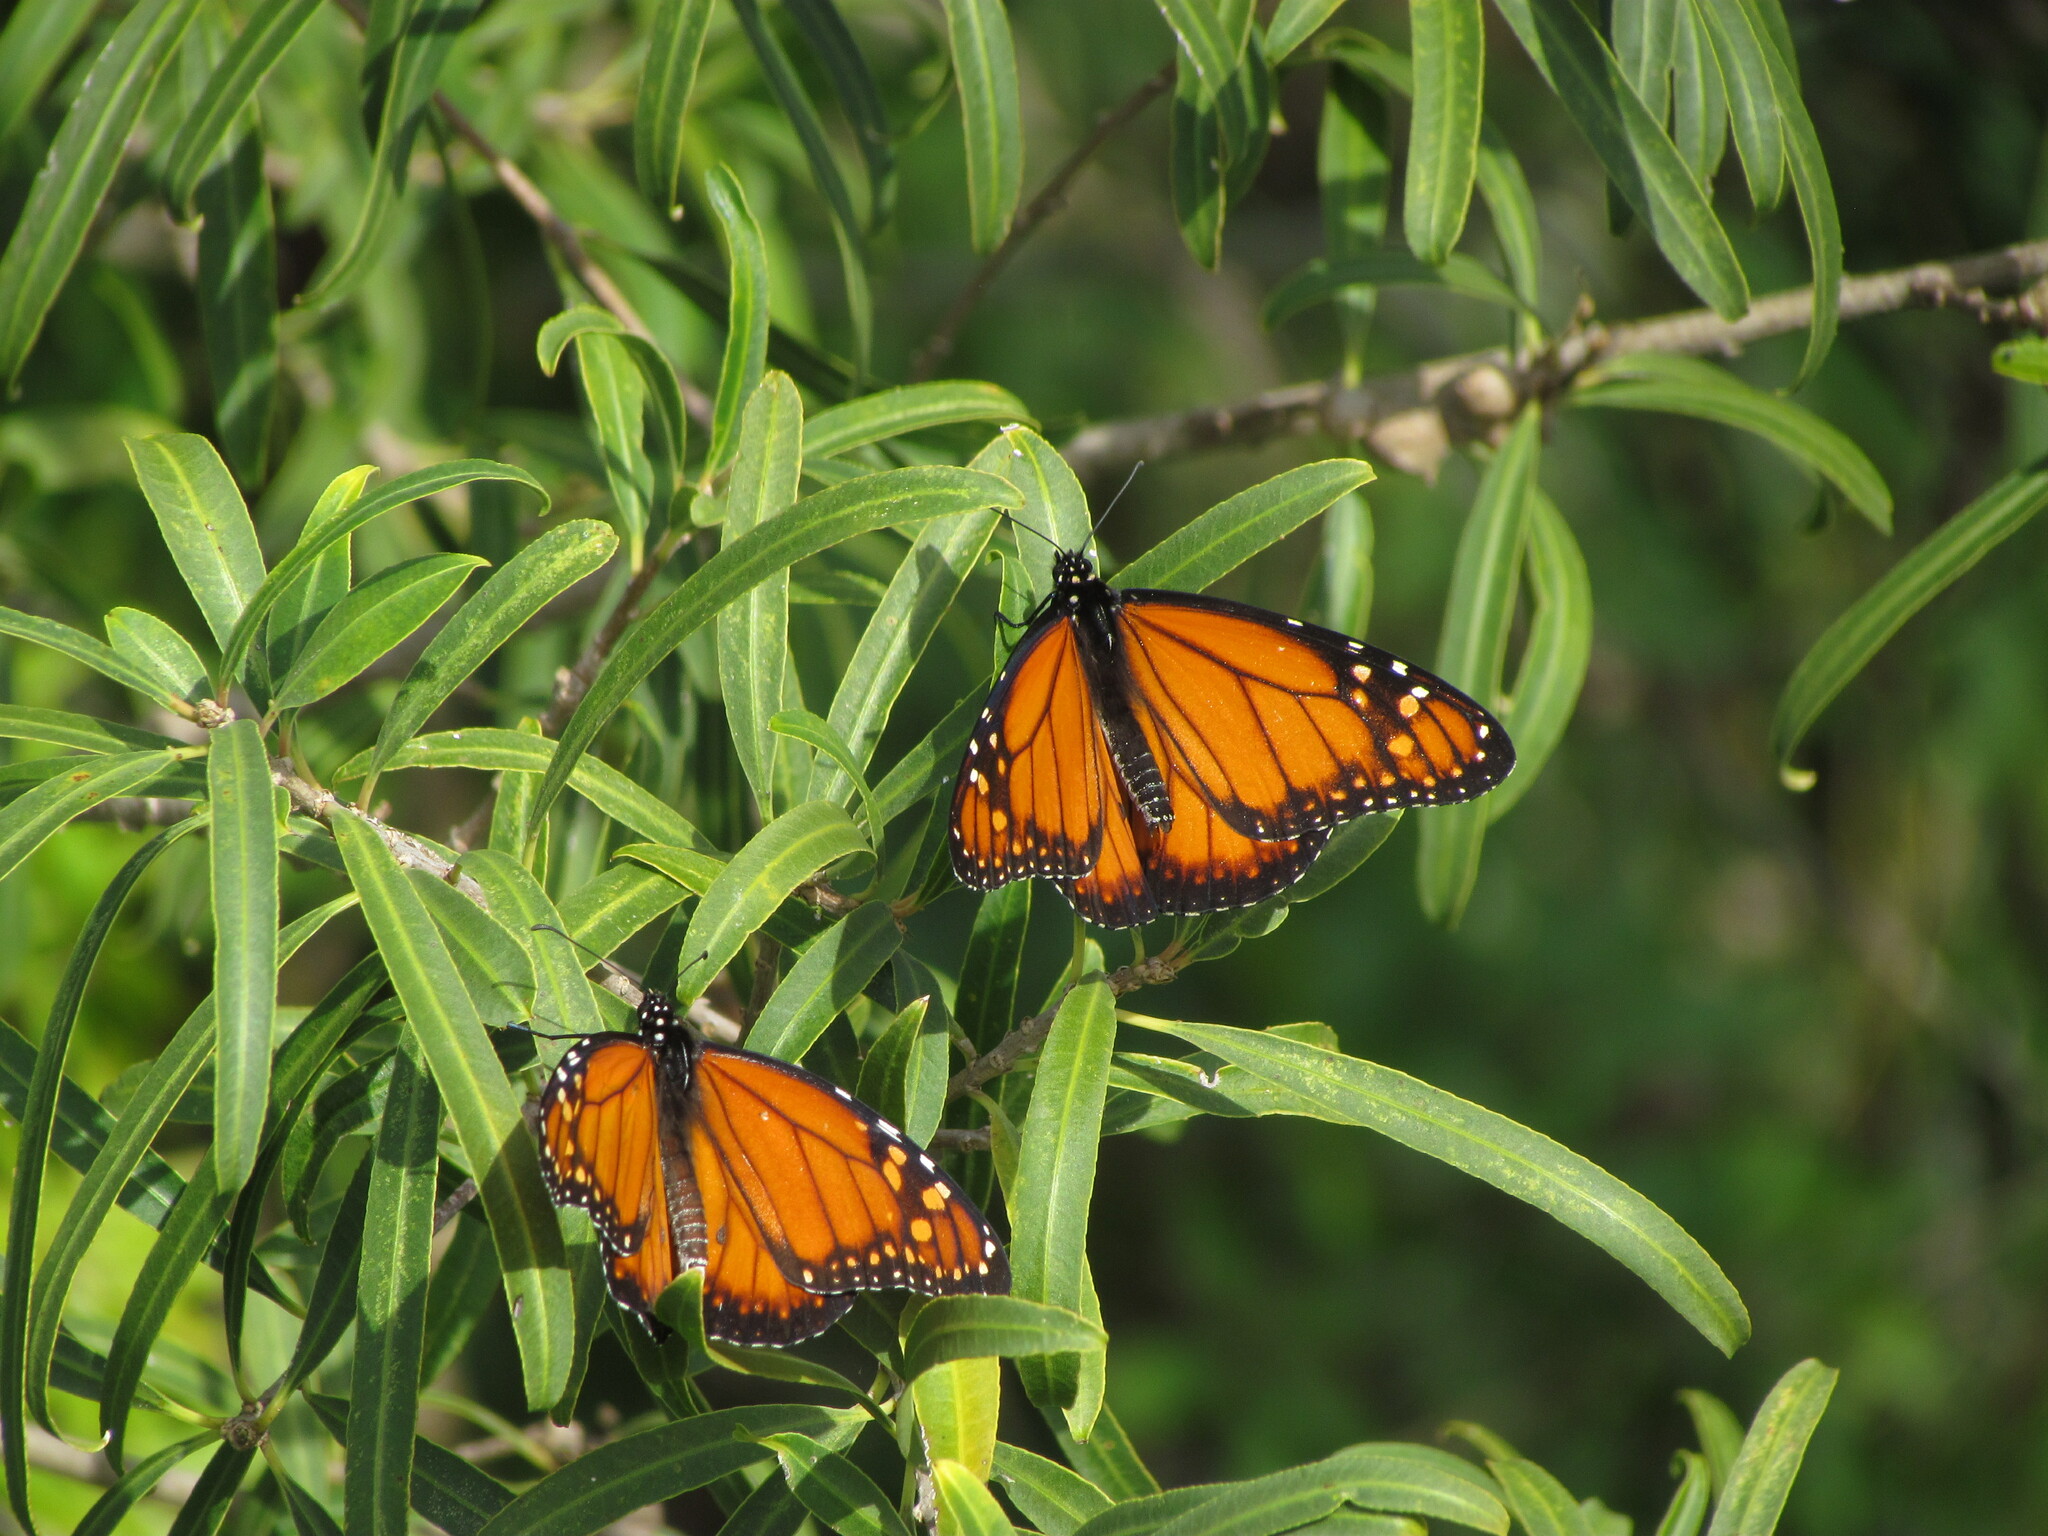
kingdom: Animalia
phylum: Arthropoda
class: Insecta
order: Lepidoptera
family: Nymphalidae
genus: Danaus
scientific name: Danaus erippus
